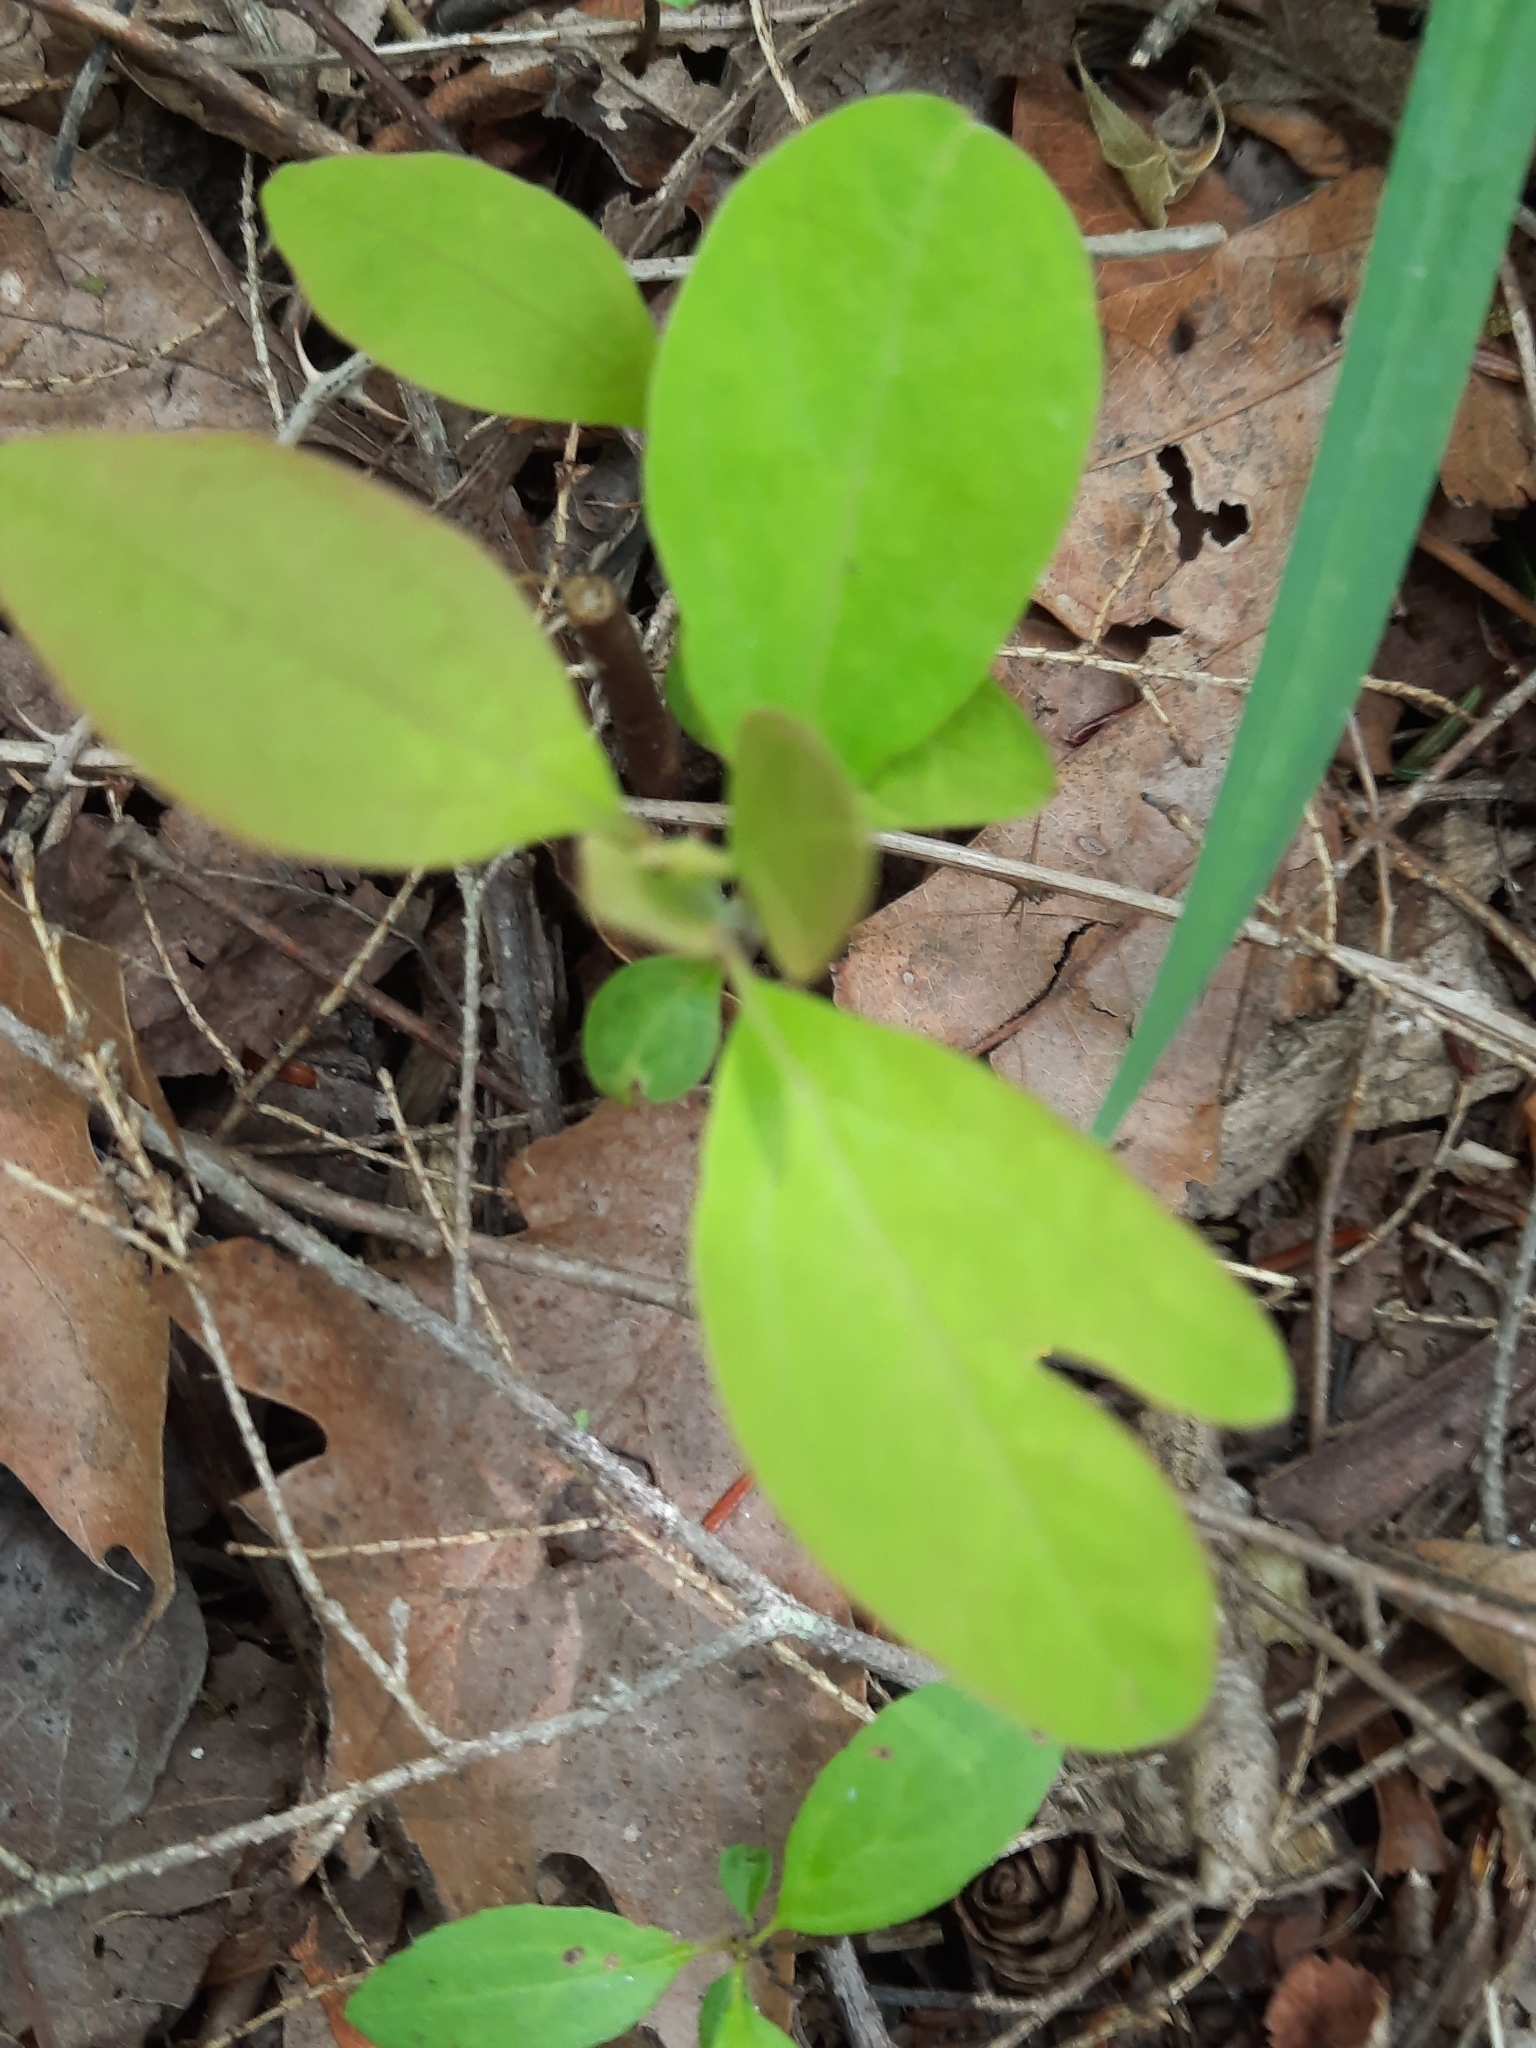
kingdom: Plantae
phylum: Tracheophyta
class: Magnoliopsida
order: Laurales
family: Lauraceae
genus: Sassafras
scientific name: Sassafras albidum
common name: Sassafras
